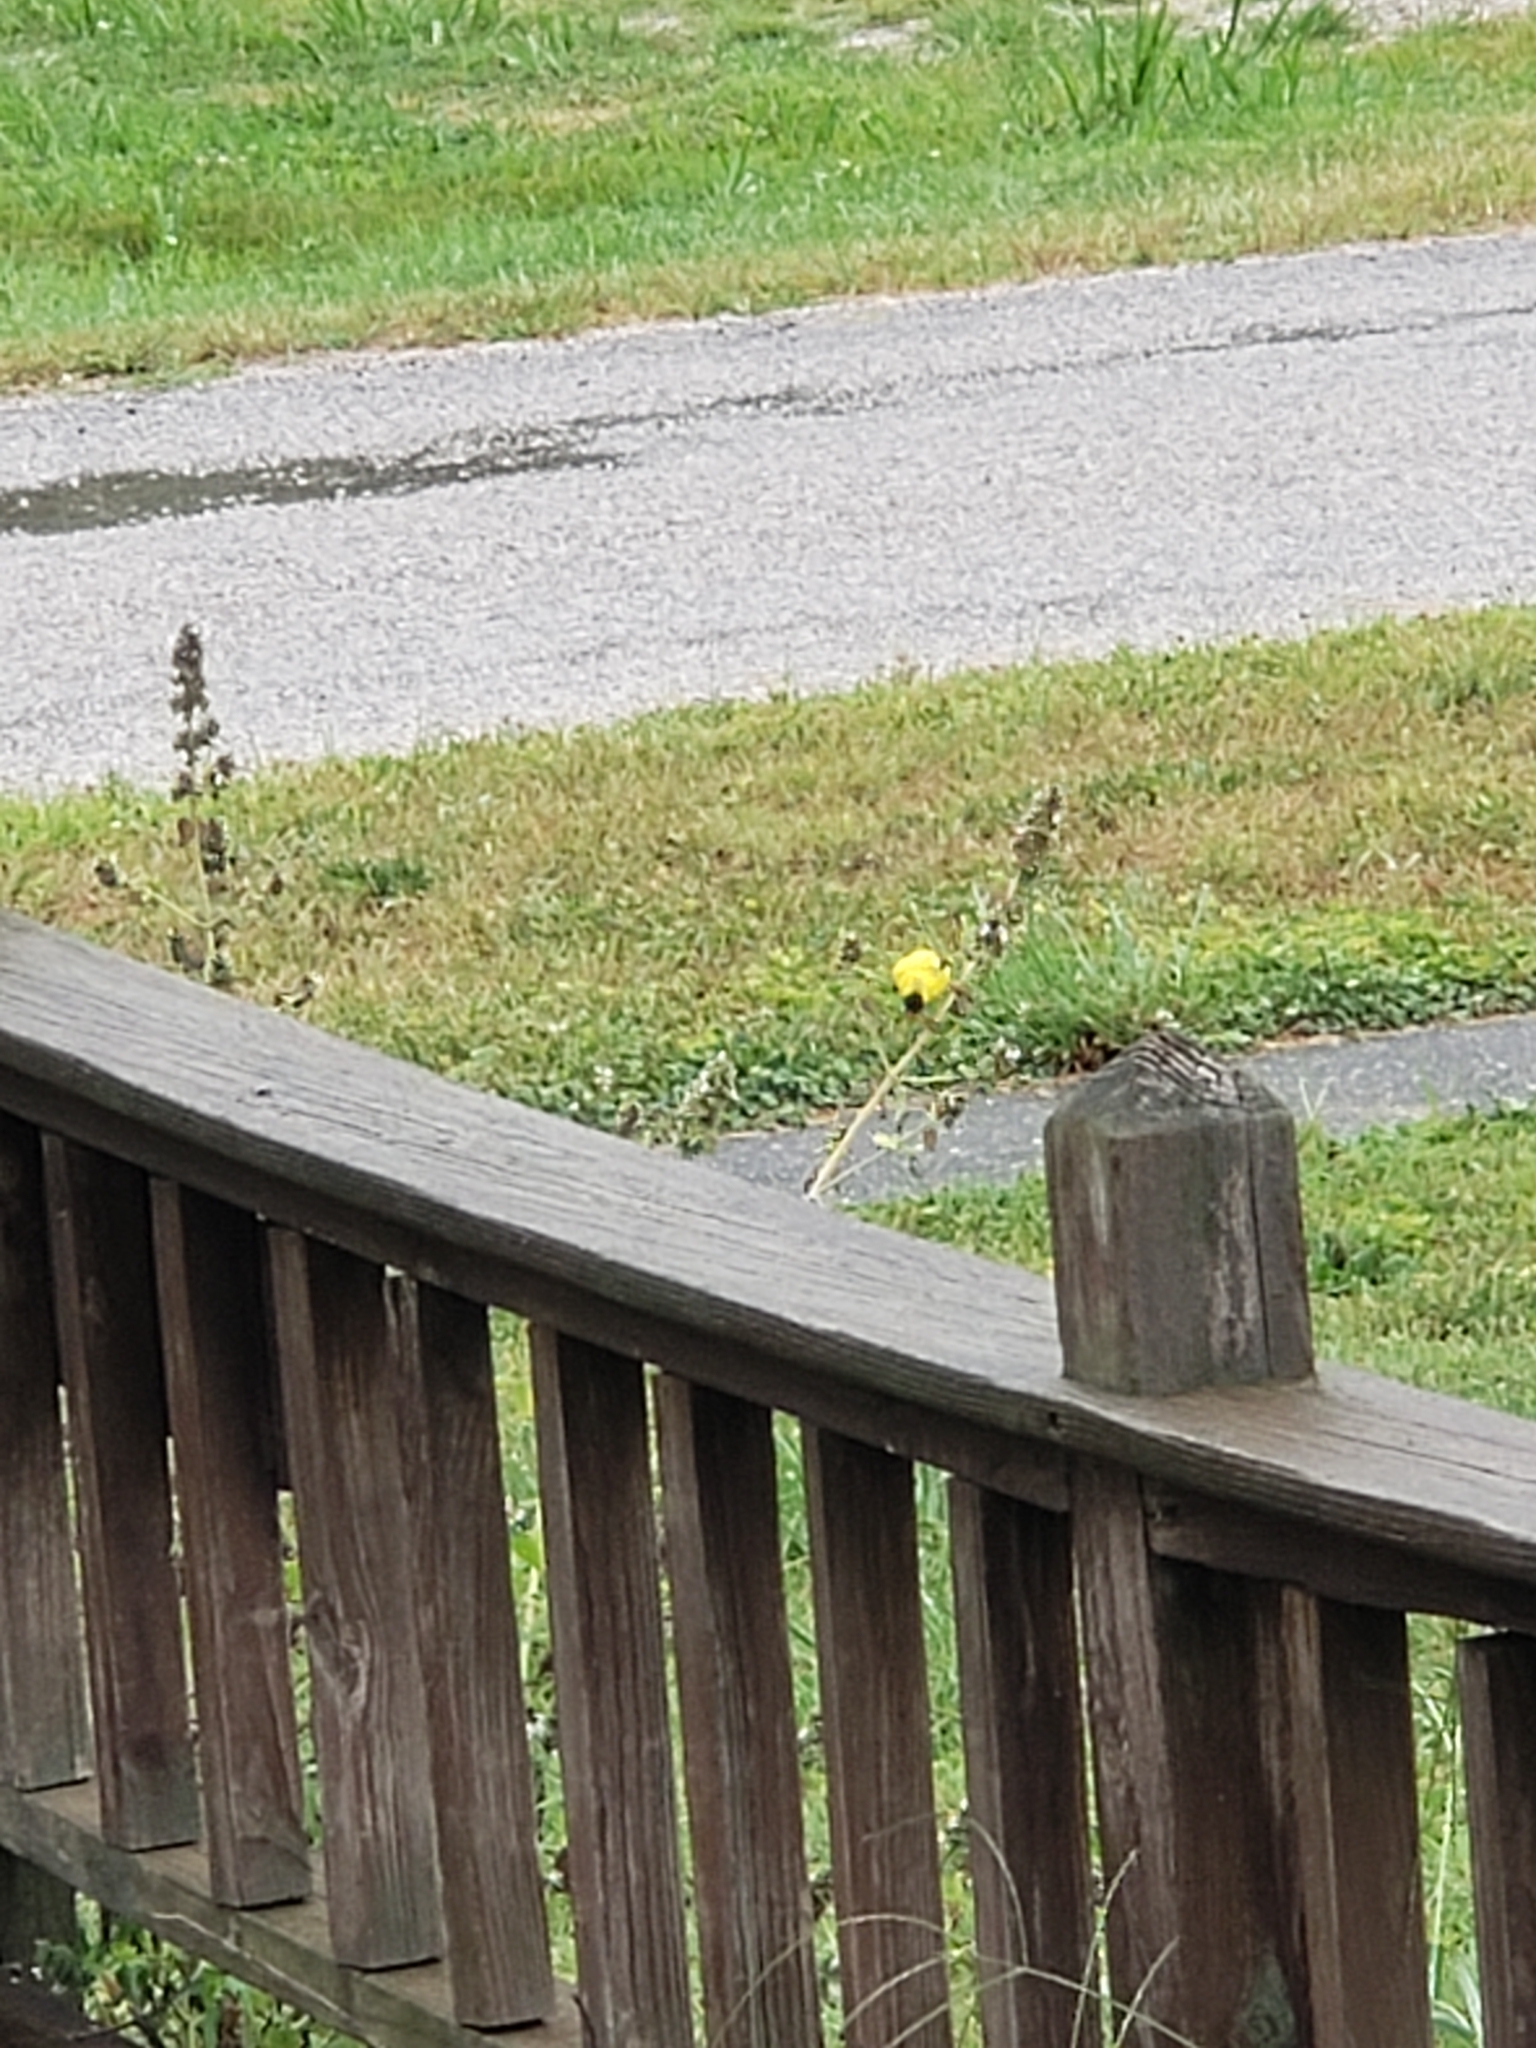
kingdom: Animalia
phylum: Chordata
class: Aves
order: Passeriformes
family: Fringillidae
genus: Spinus
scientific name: Spinus tristis
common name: American goldfinch
